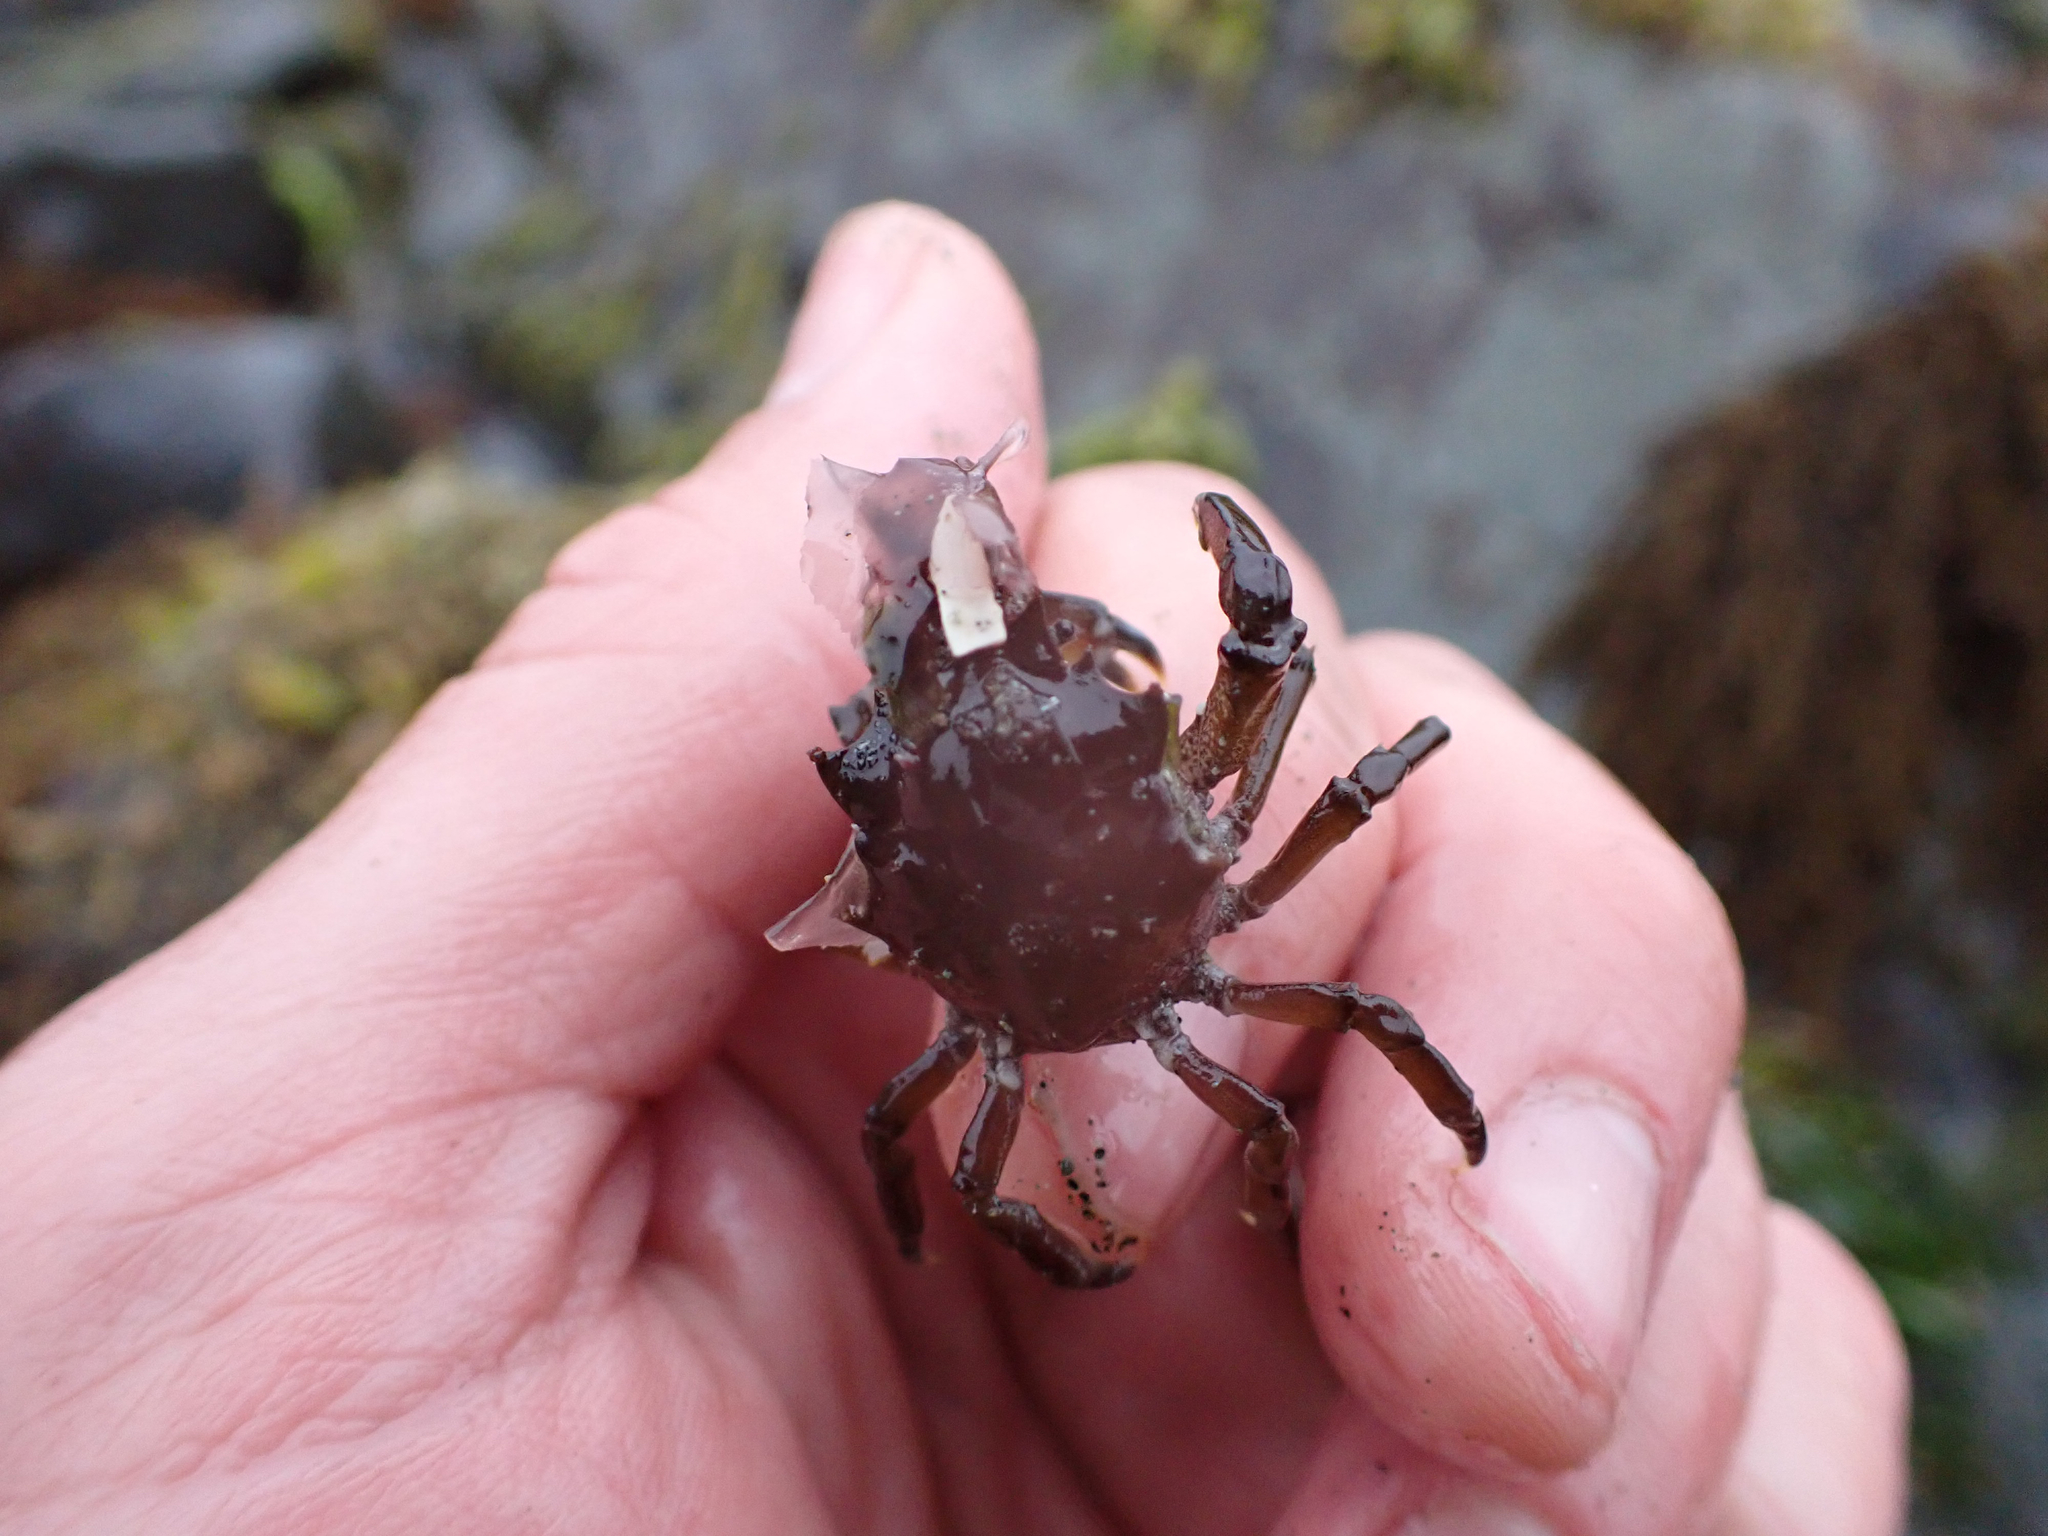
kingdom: Animalia
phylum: Arthropoda
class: Malacostraca
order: Decapoda
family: Epialtidae
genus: Pugettia
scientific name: Pugettia gracilis
